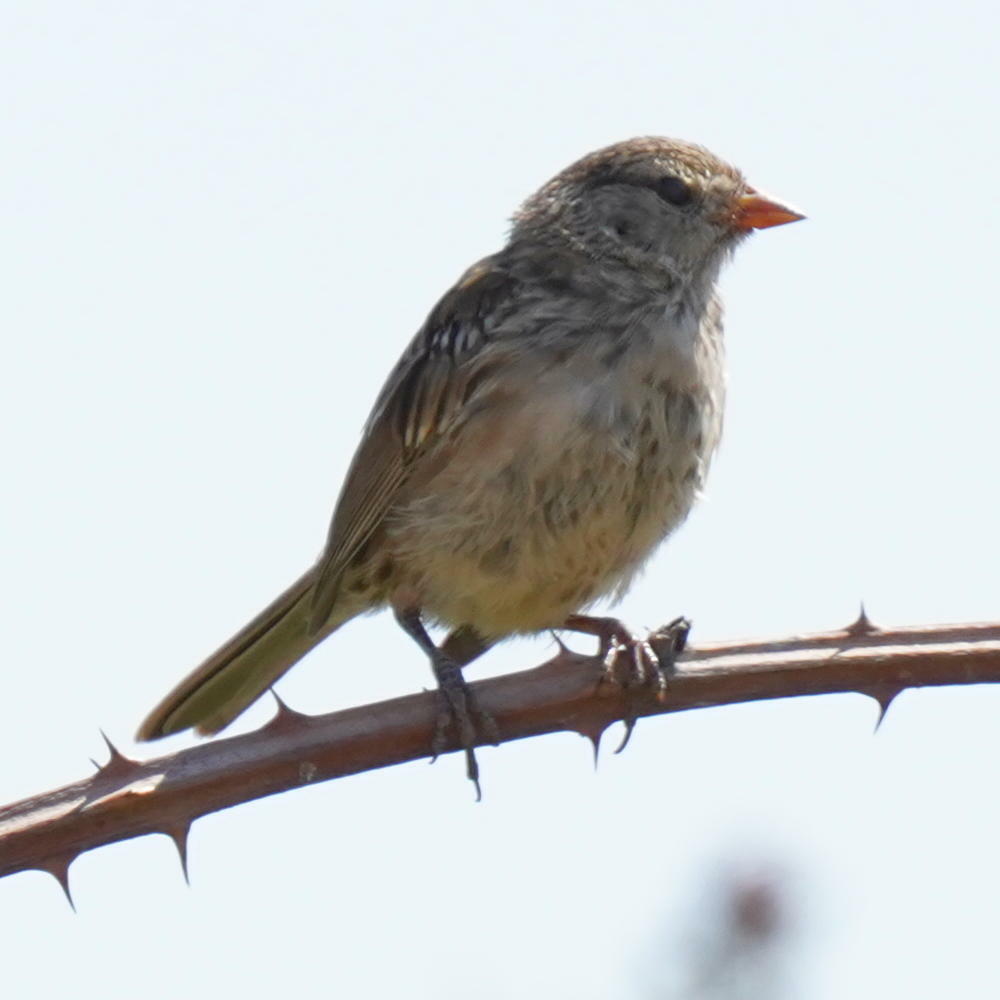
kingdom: Animalia
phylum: Chordata
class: Aves
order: Passeriformes
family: Passerellidae
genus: Zonotrichia
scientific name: Zonotrichia leucophrys
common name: White-crowned sparrow
